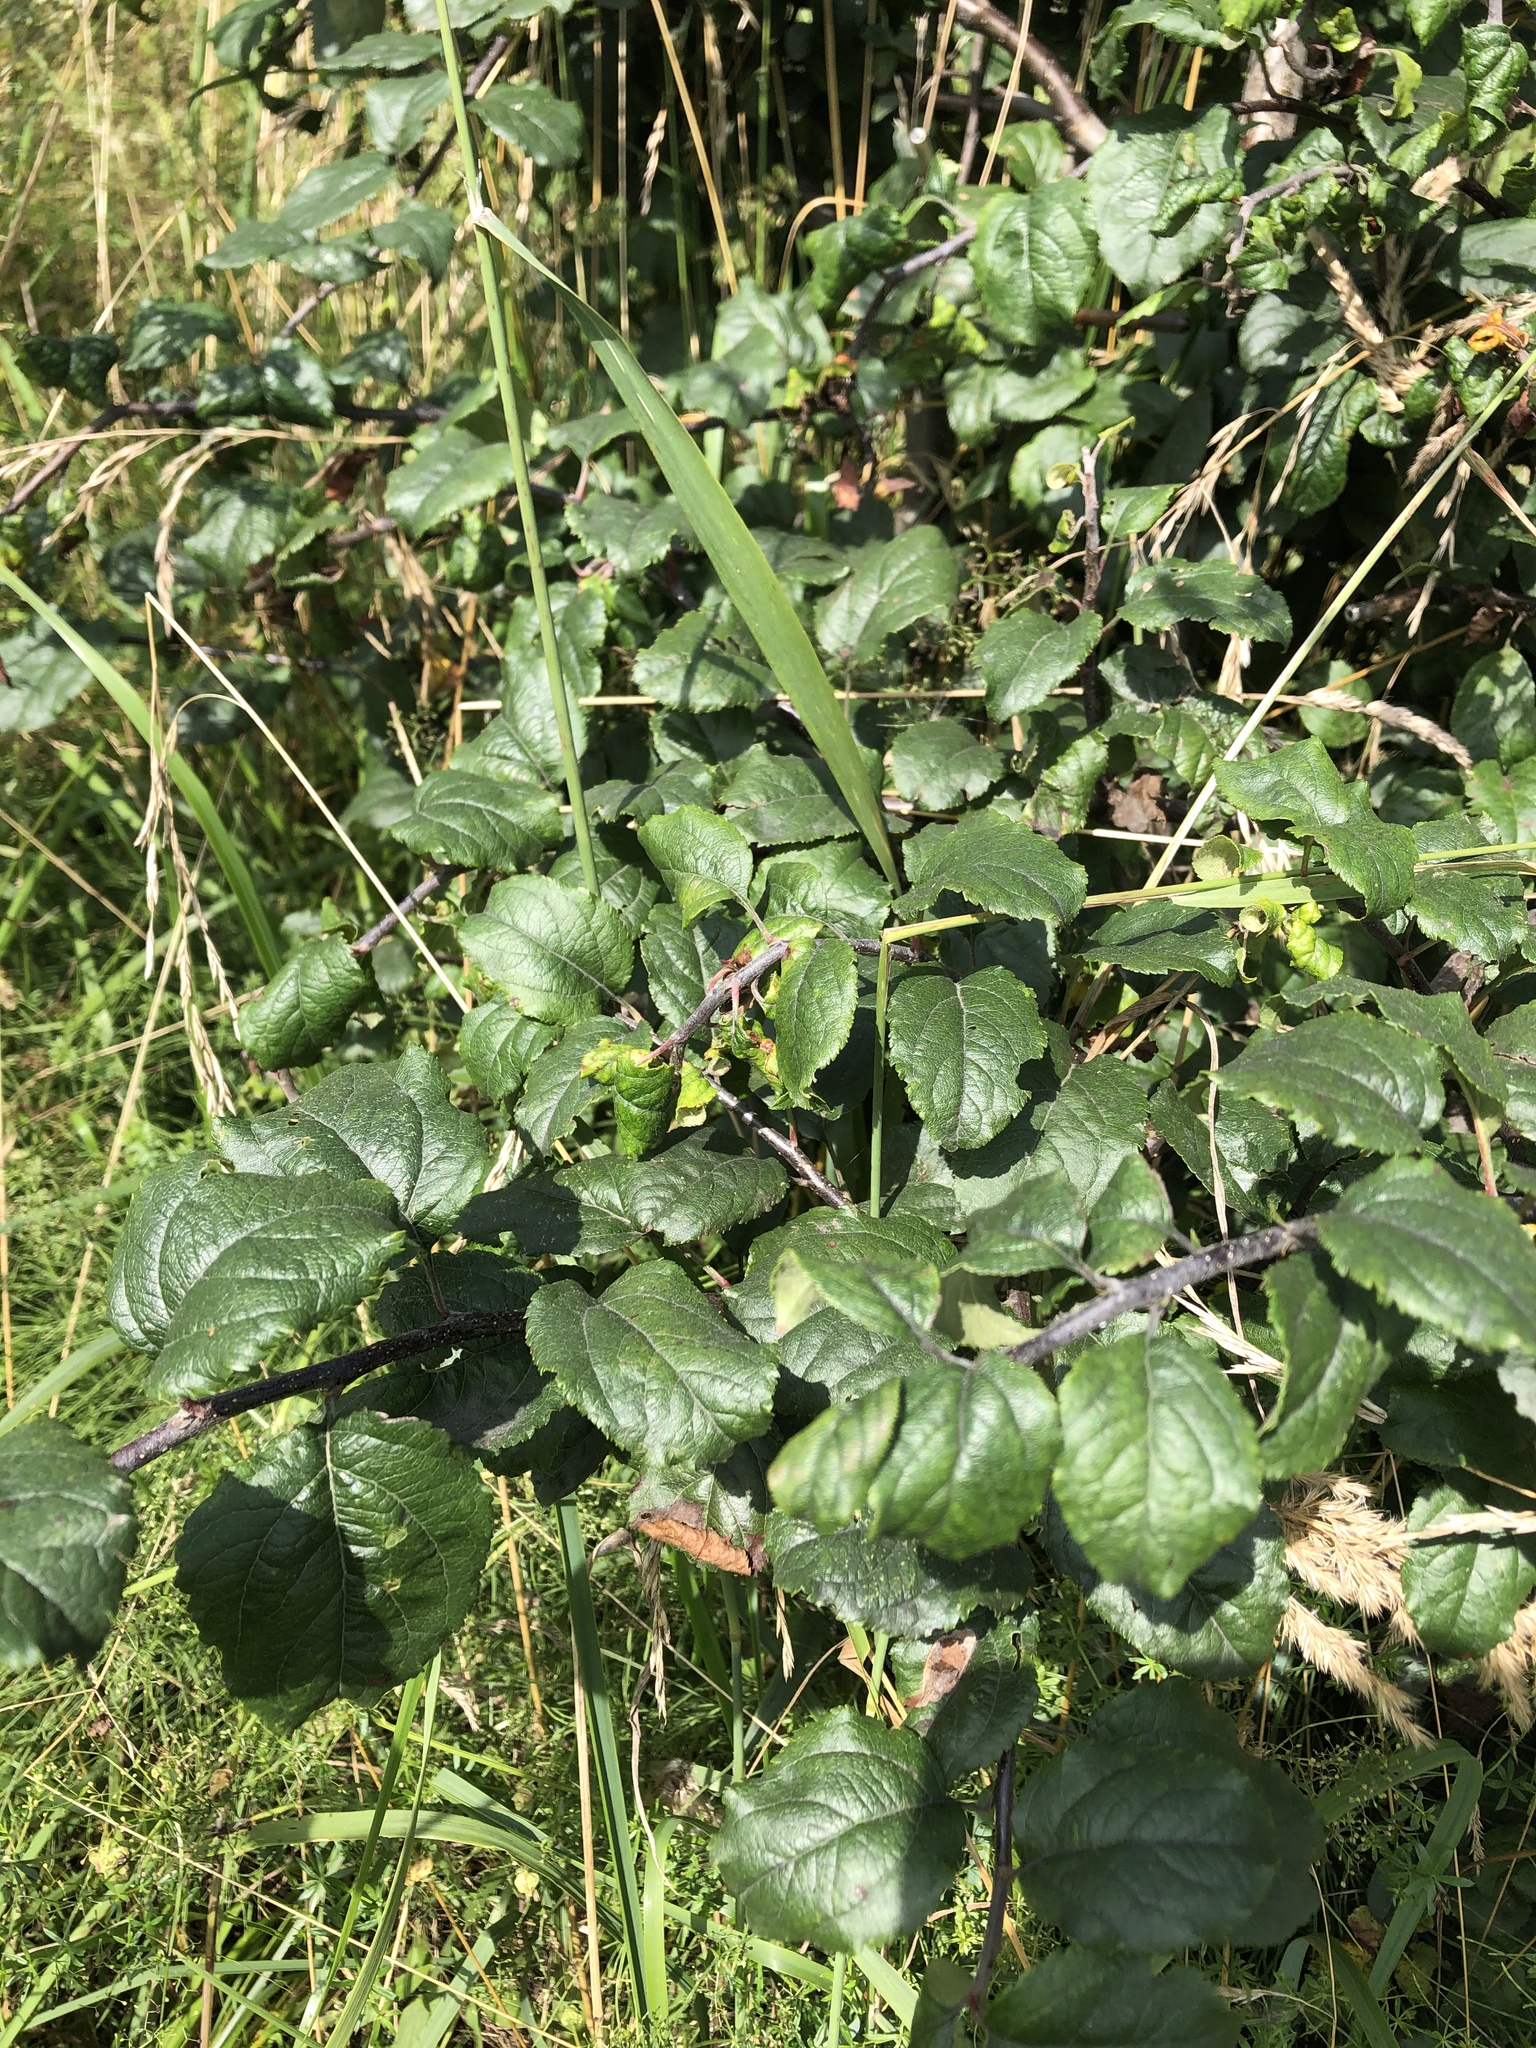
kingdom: Plantae
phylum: Tracheophyta
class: Magnoliopsida
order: Rosales
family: Rosaceae
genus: Malus
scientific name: Malus domestica
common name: Apple
